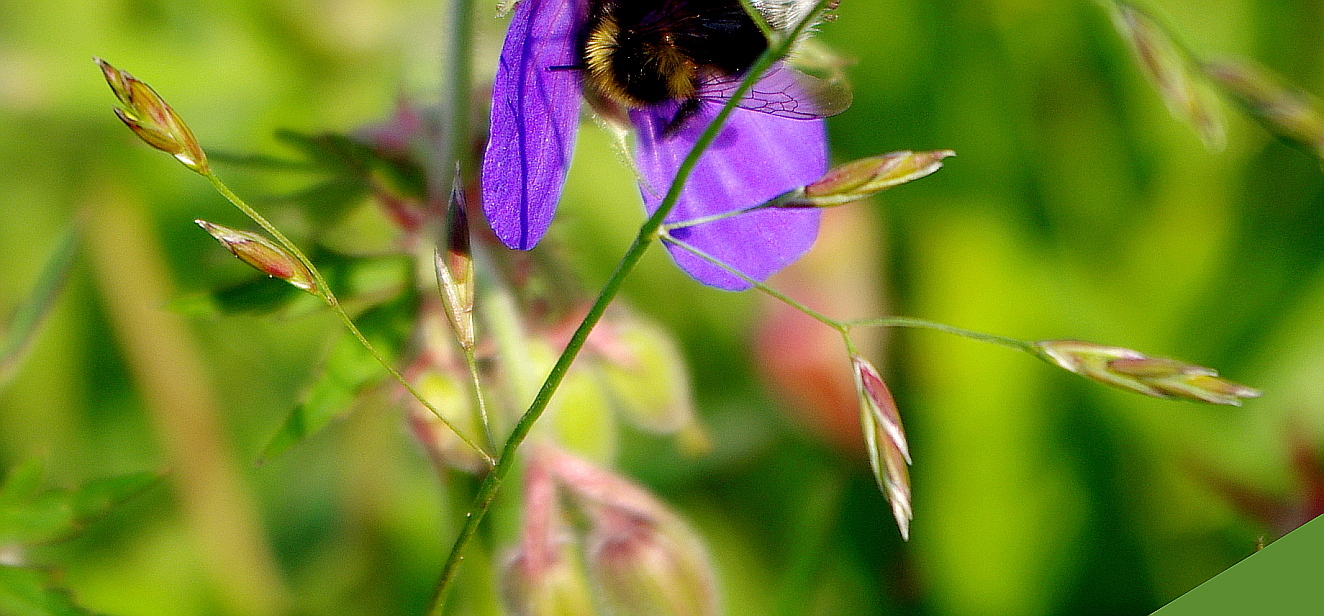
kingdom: Plantae
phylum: Tracheophyta
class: Liliopsida
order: Poales
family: Poaceae
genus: Lolium
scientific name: Lolium pratense
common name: Dover grass
